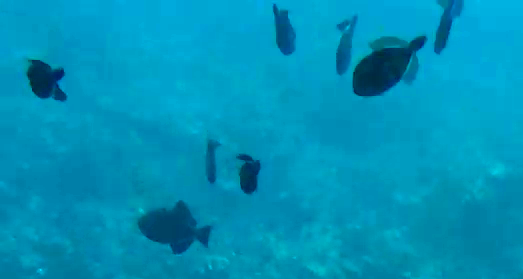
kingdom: Animalia
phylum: Chordata
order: Tetraodontiformes
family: Balistidae
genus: Melichthys
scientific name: Melichthys niger
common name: Black durgon
